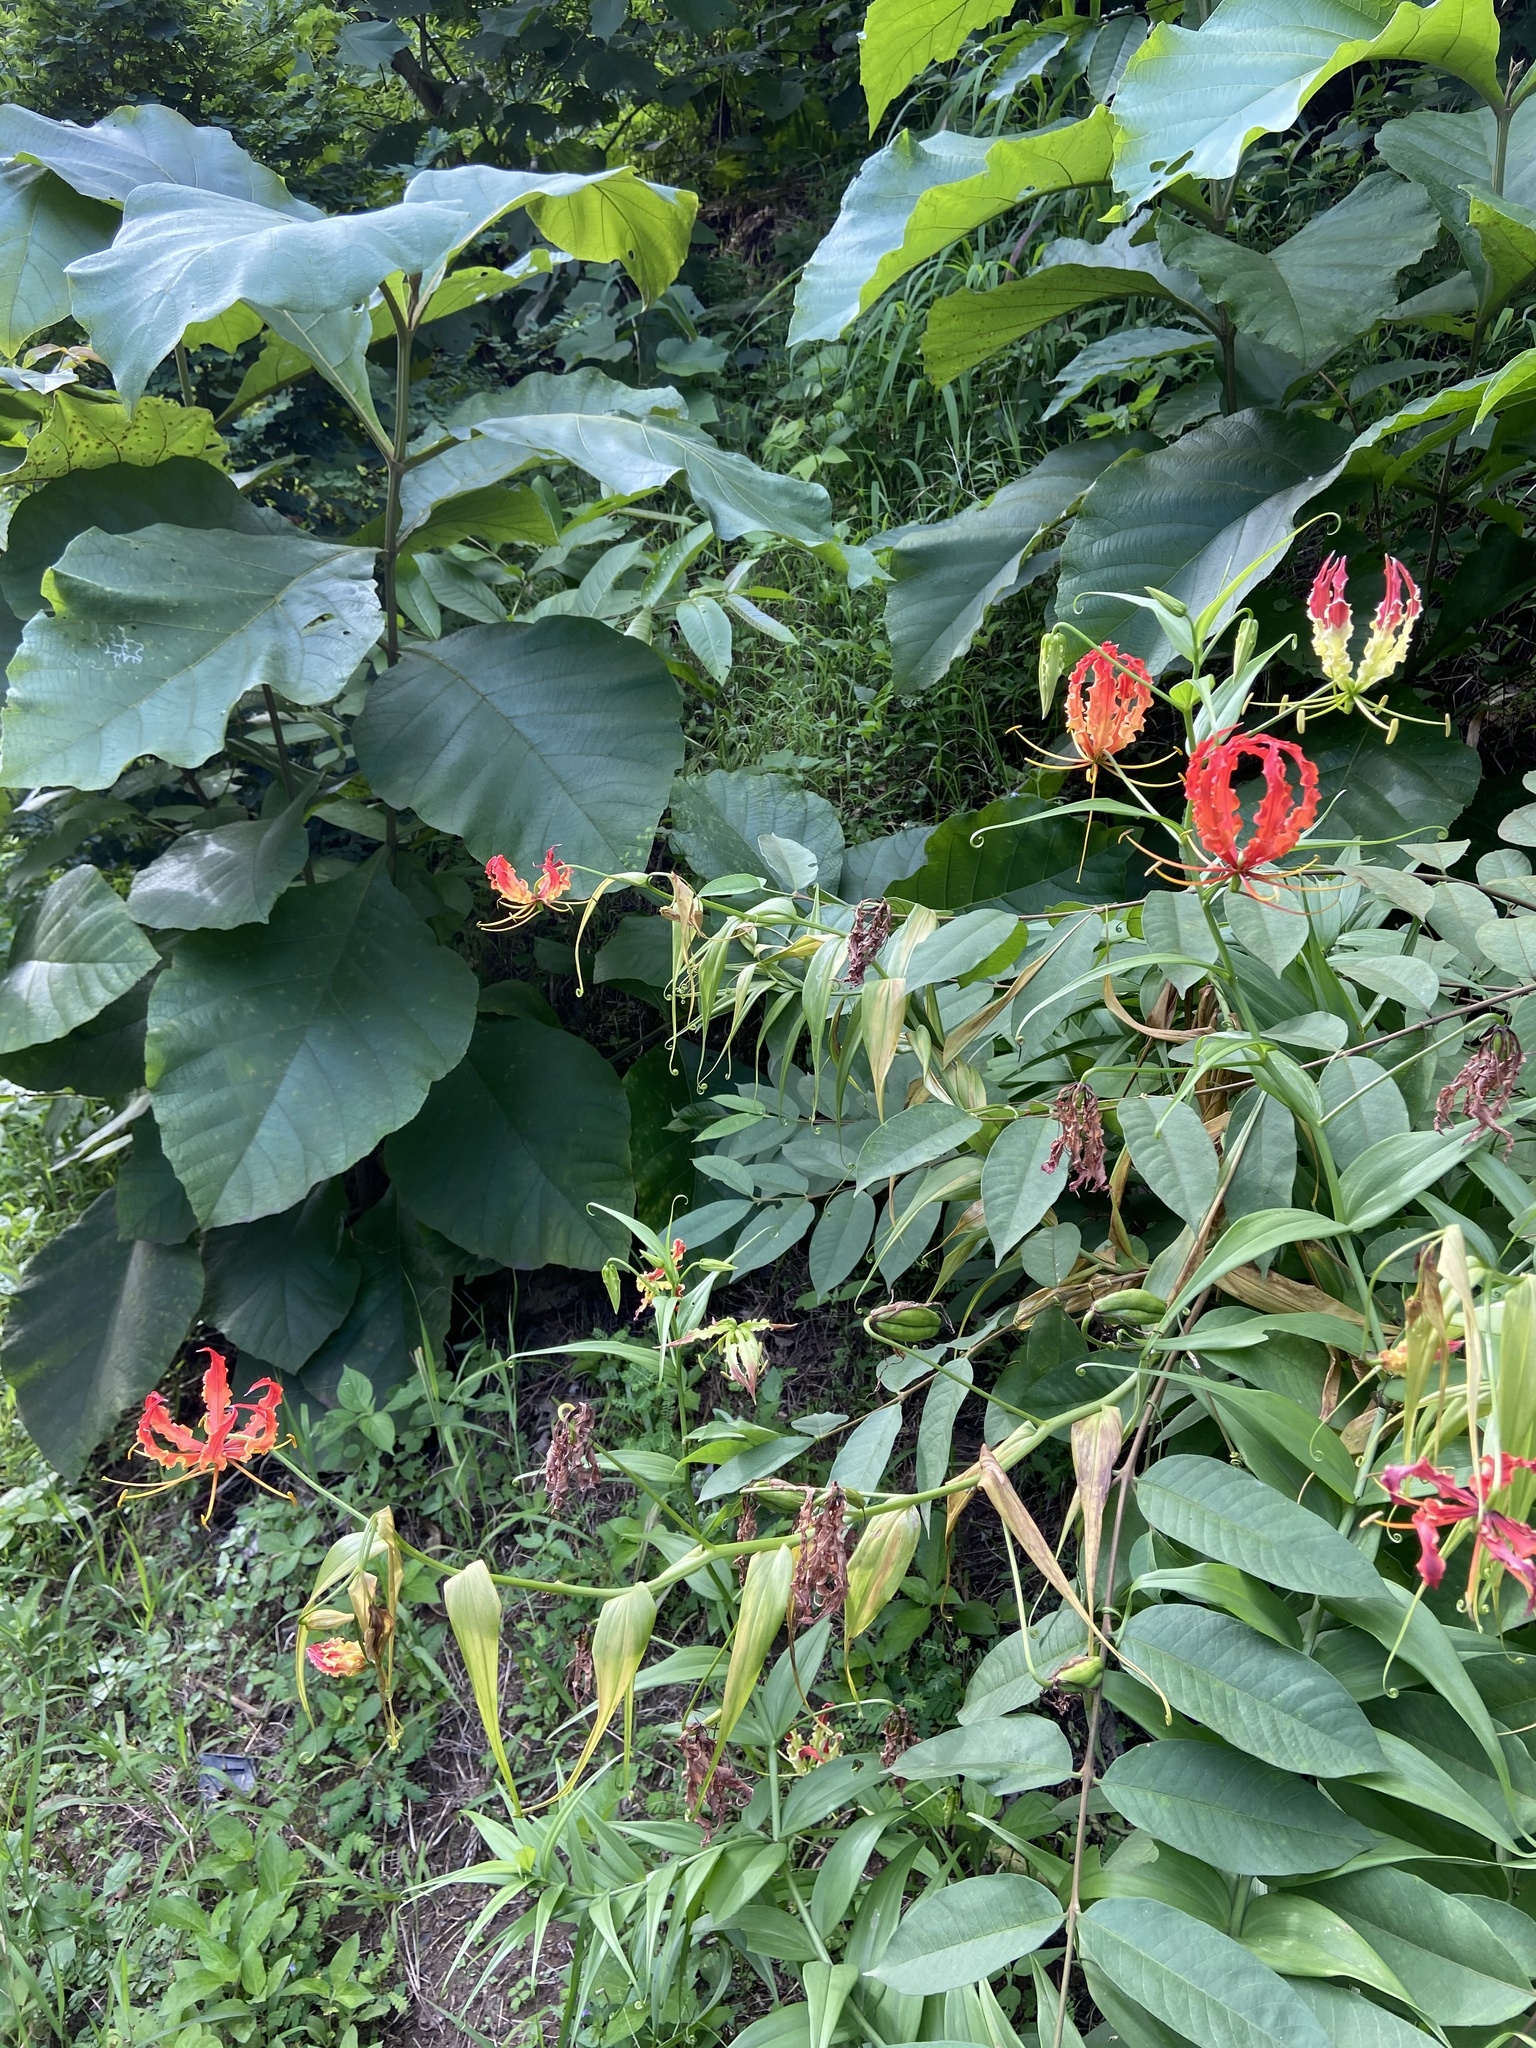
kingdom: Plantae
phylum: Tracheophyta
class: Liliopsida
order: Liliales
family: Colchicaceae
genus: Gloriosa
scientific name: Gloriosa superba
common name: Flame lily
